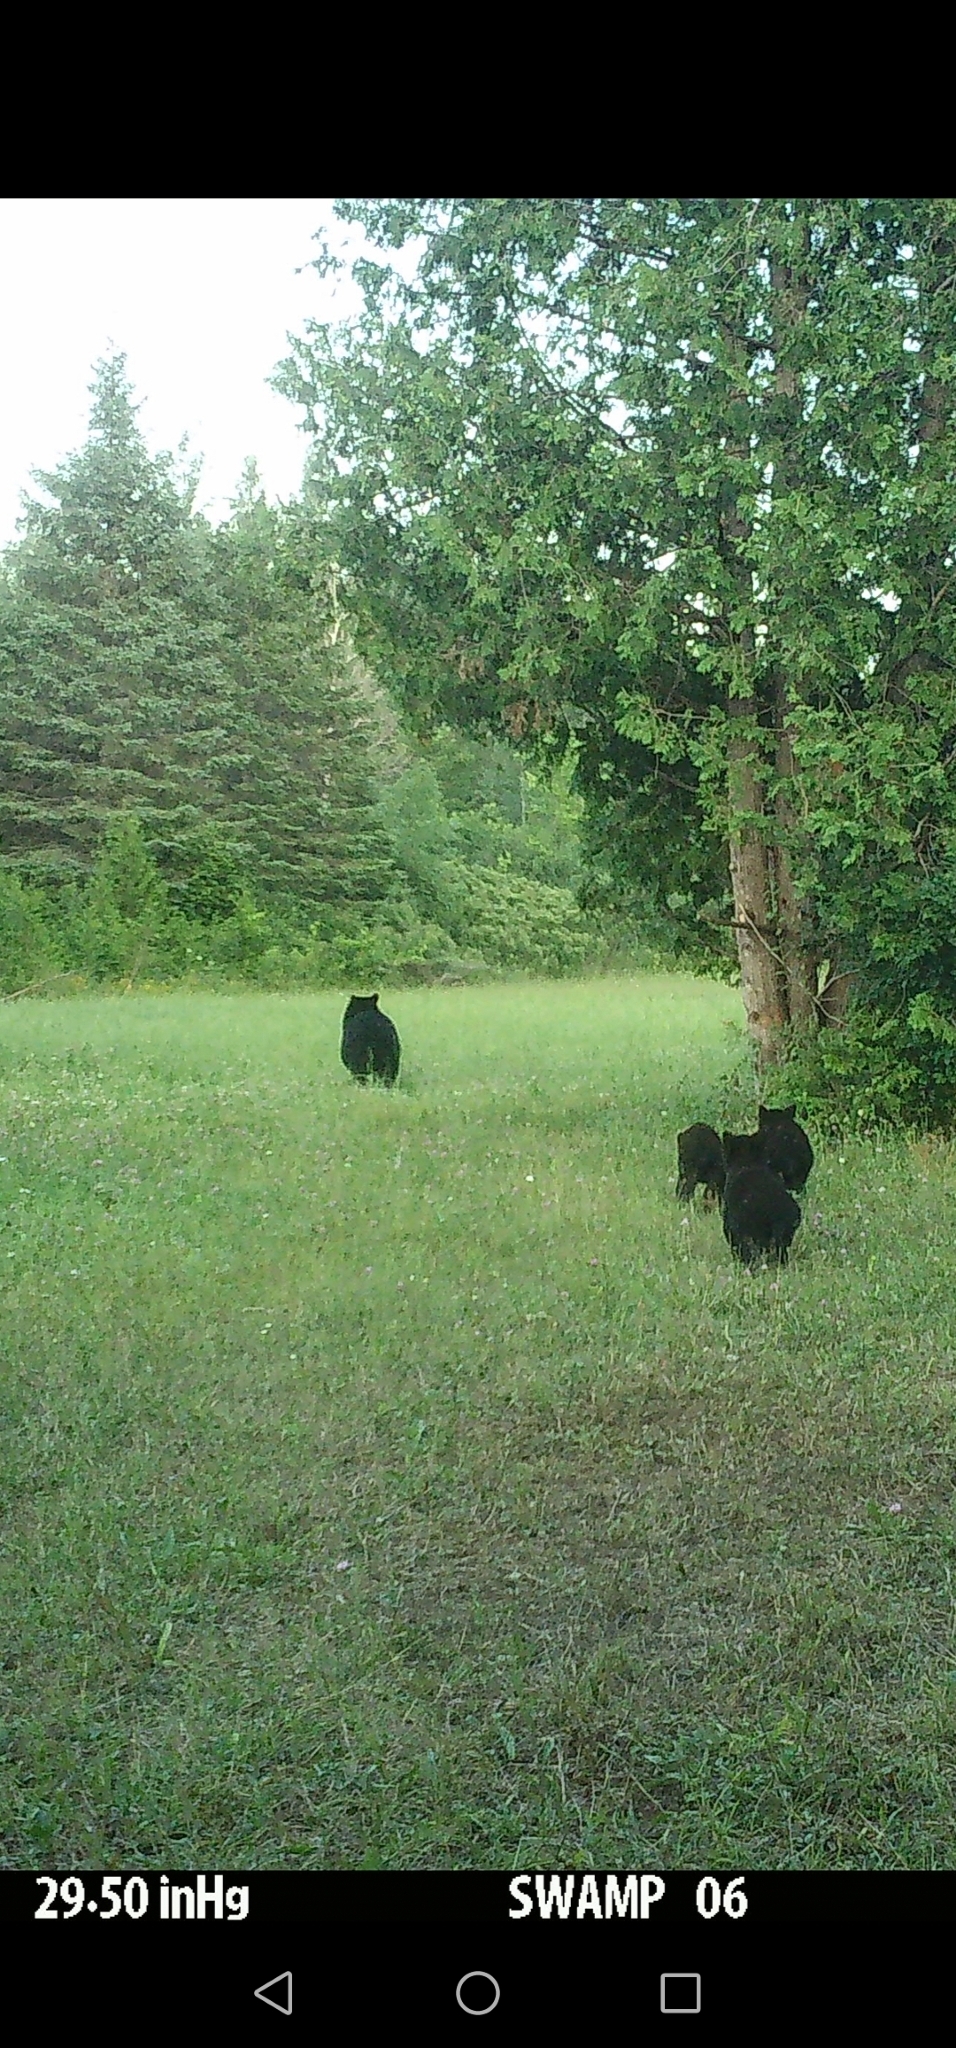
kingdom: Animalia
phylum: Chordata
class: Mammalia
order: Carnivora
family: Ursidae
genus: Ursus
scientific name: Ursus americanus
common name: American black bear
